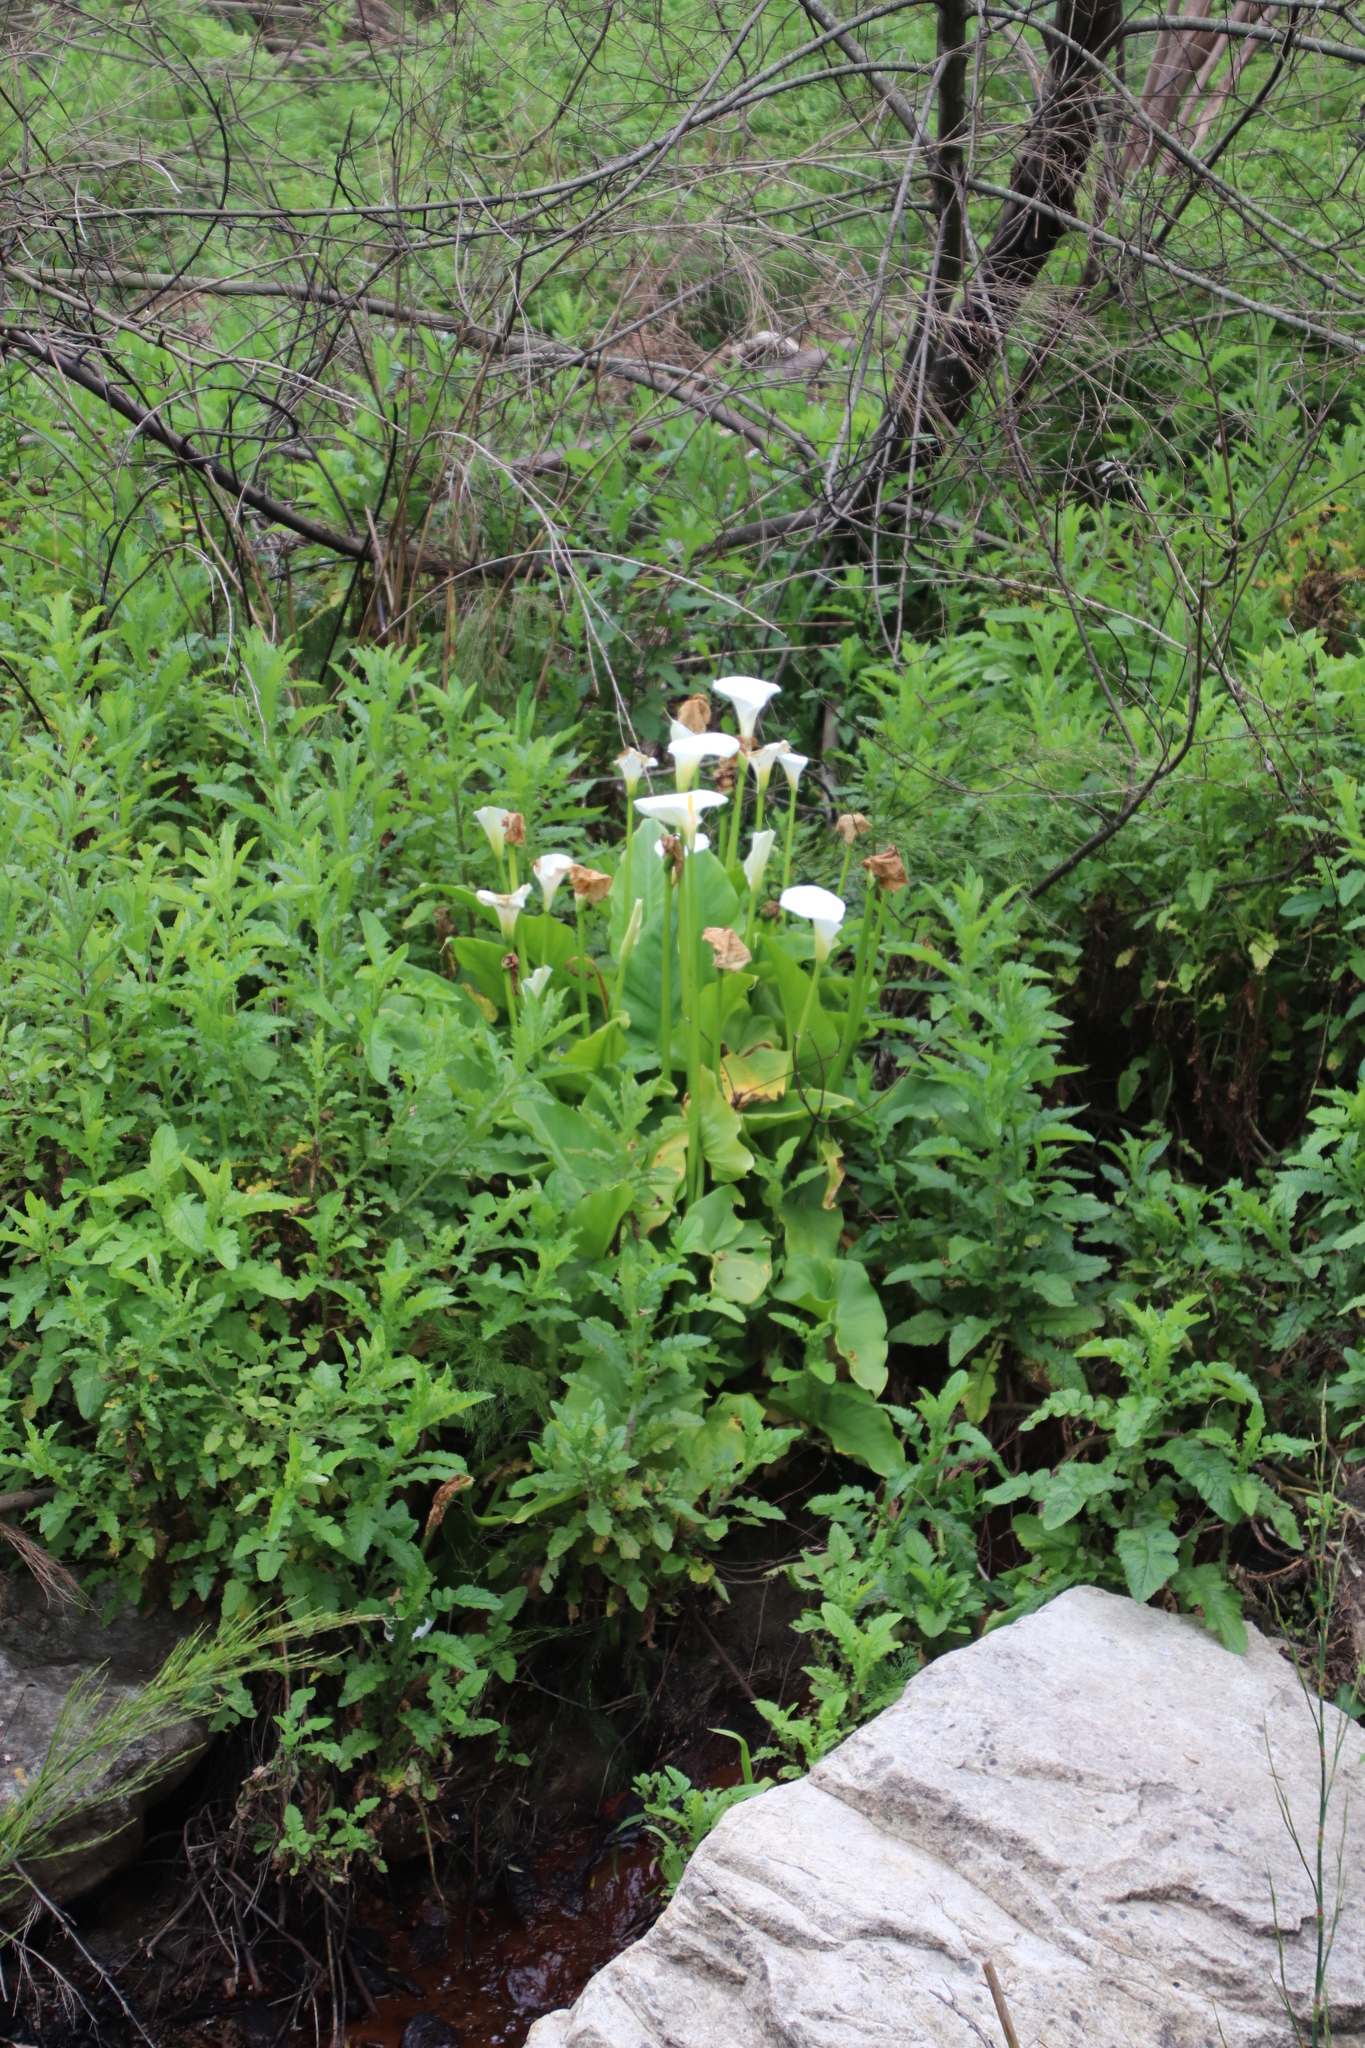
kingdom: Plantae
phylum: Tracheophyta
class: Liliopsida
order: Alismatales
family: Araceae
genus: Zantedeschia
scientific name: Zantedeschia aethiopica
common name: Altar-lily
